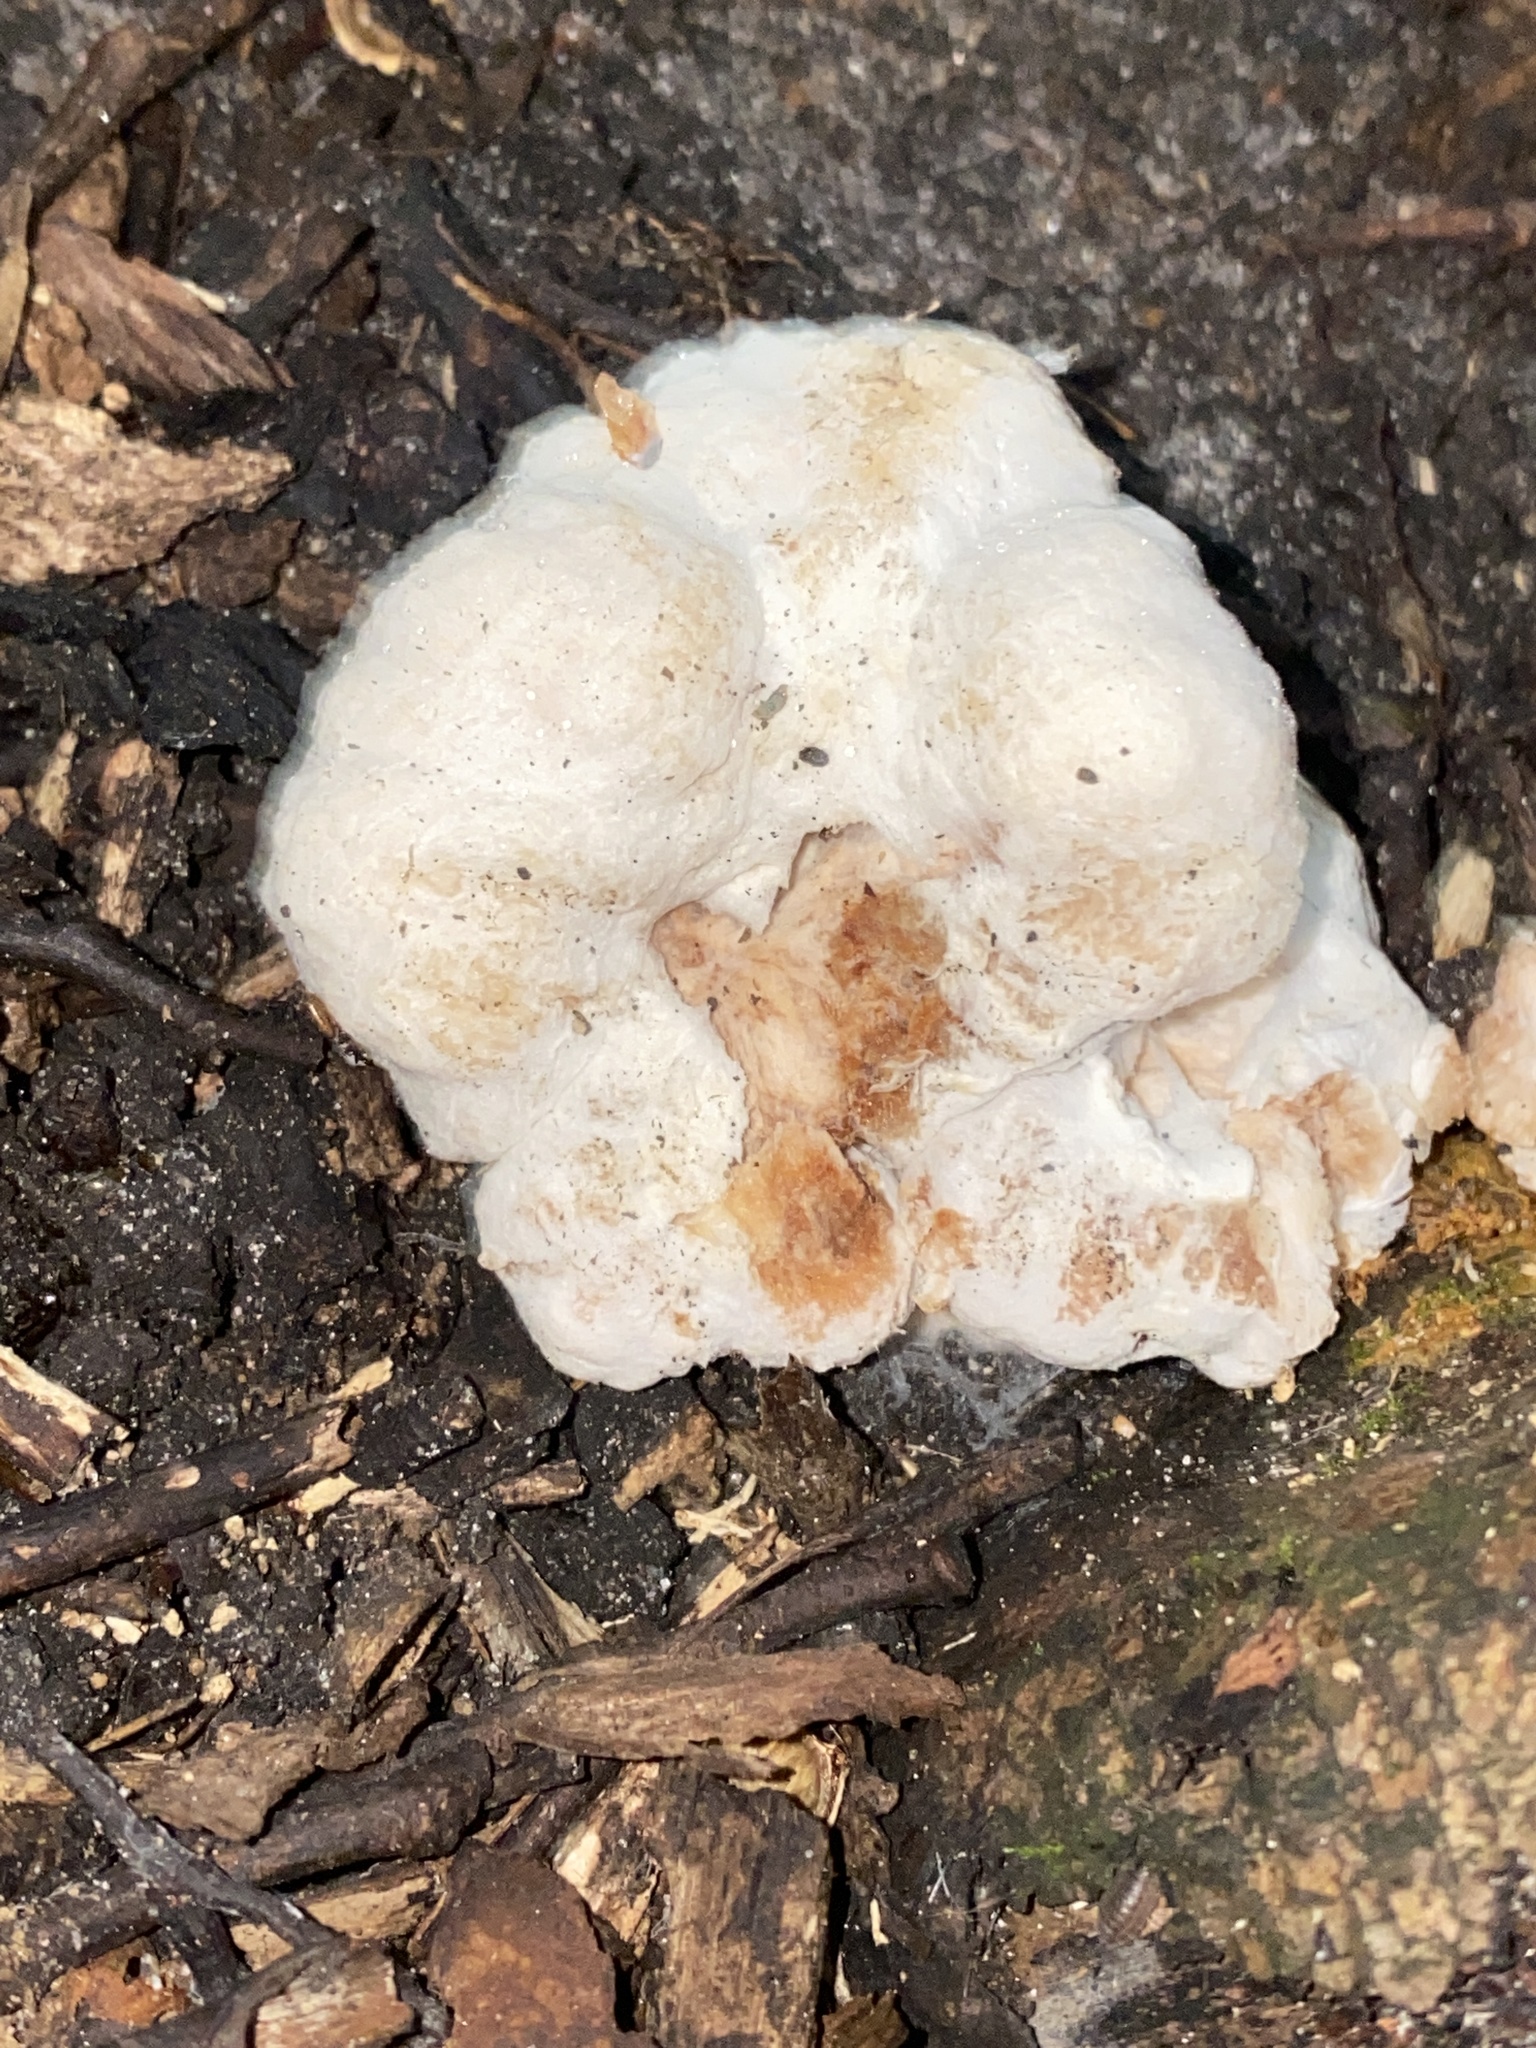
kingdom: Fungi
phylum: Basidiomycota
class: Agaricomycetes
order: Agaricales
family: Entolomataceae
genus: Entoloma
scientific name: Entoloma abortivum
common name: Aborted entoloma
